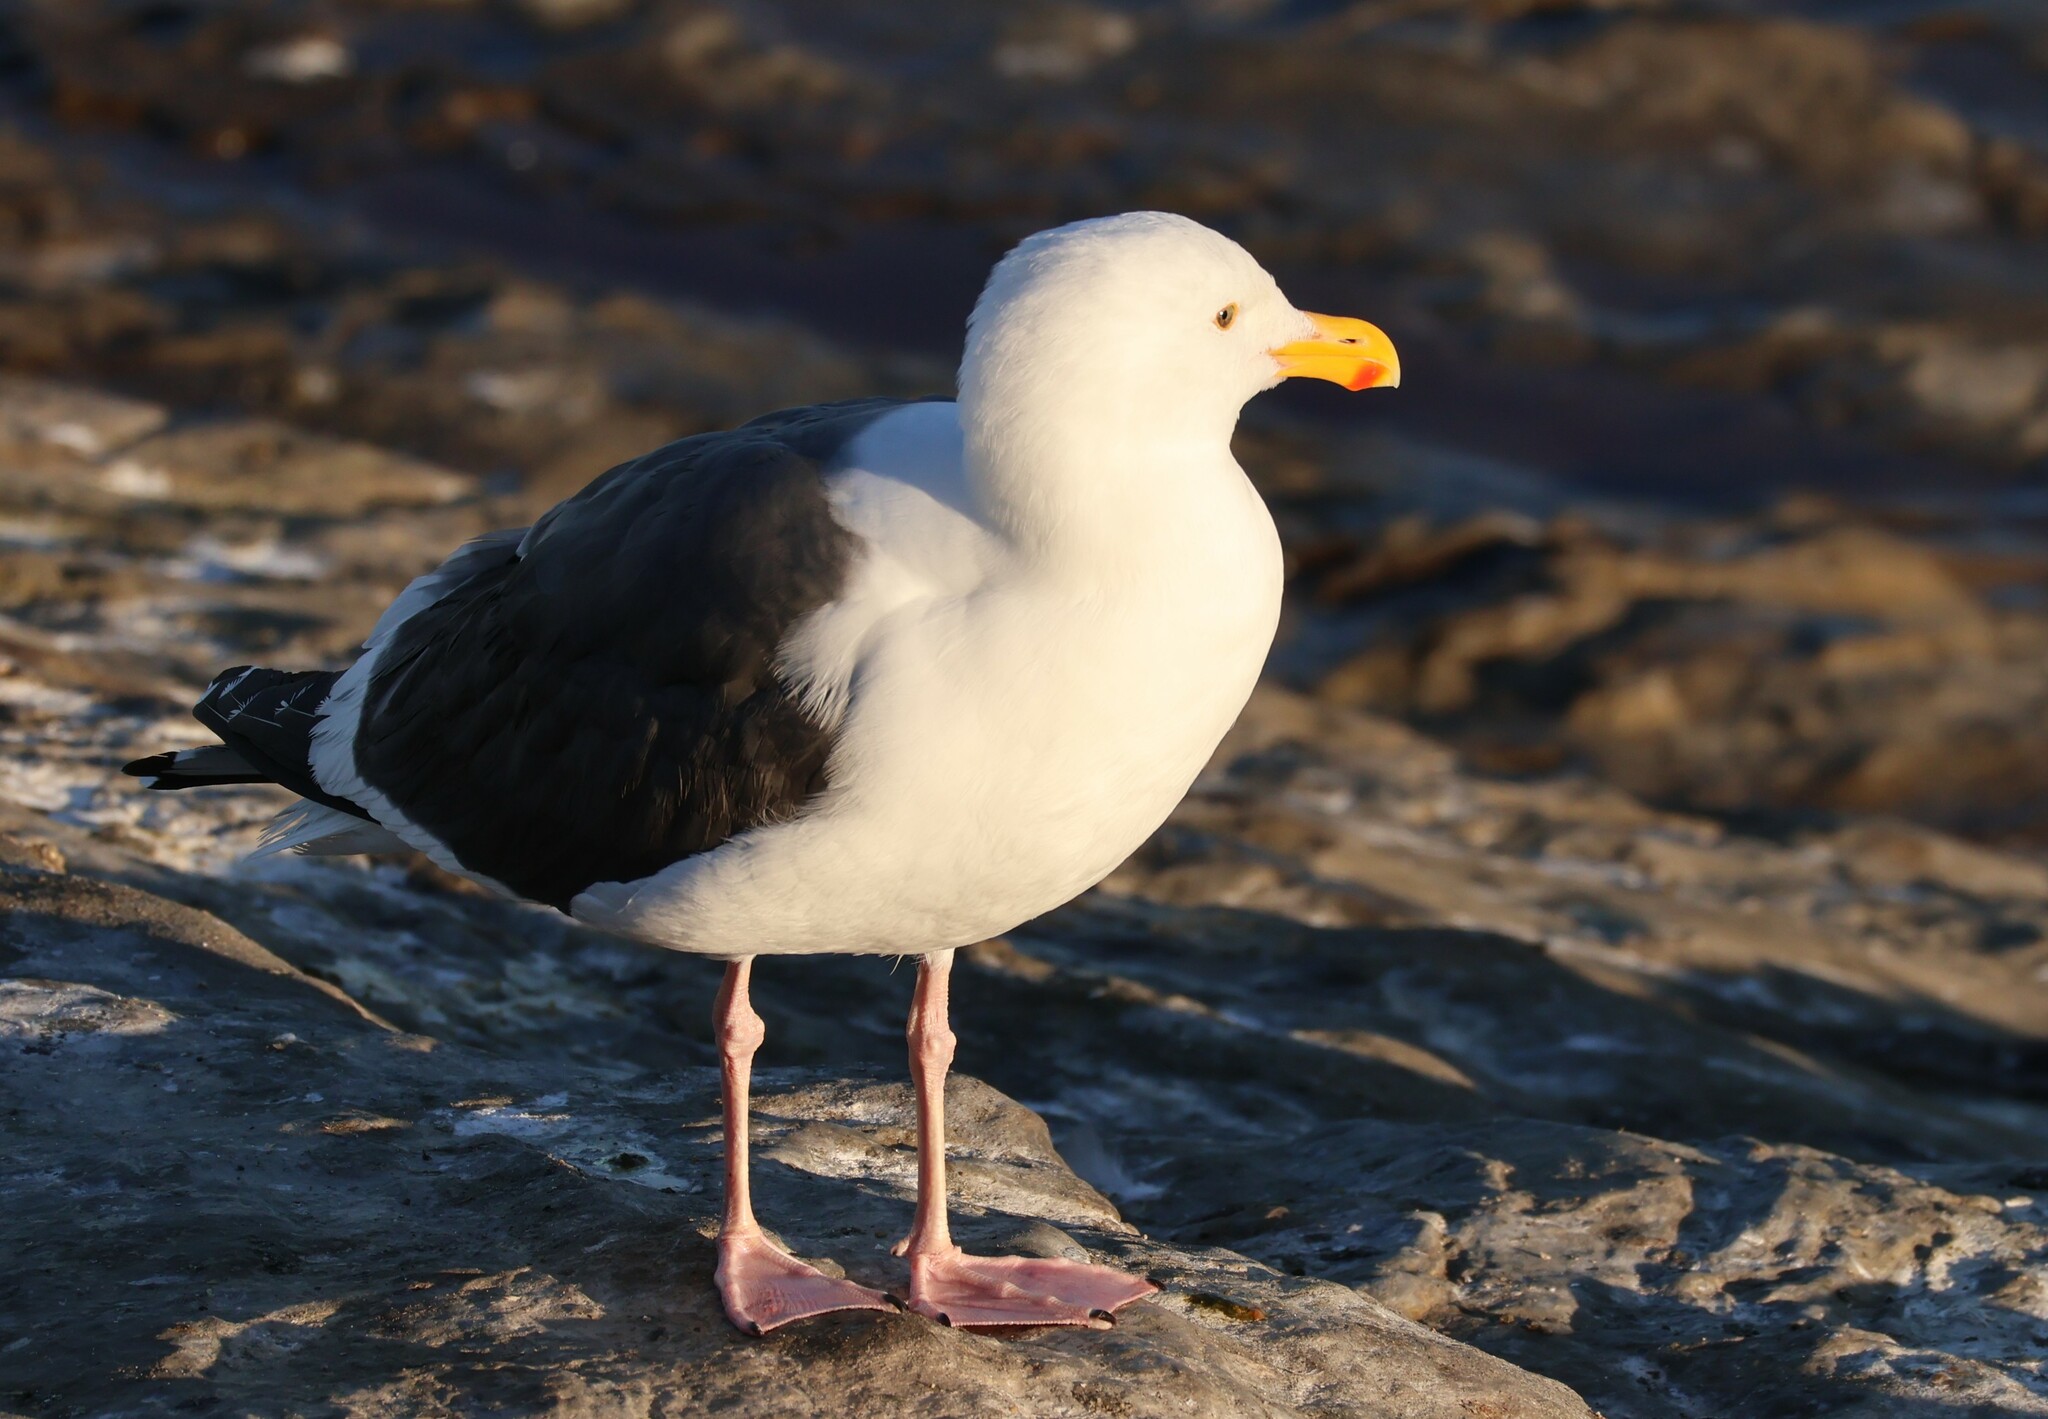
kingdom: Animalia
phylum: Chordata
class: Aves
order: Charadriiformes
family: Laridae
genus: Larus
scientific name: Larus occidentalis
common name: Western gull
